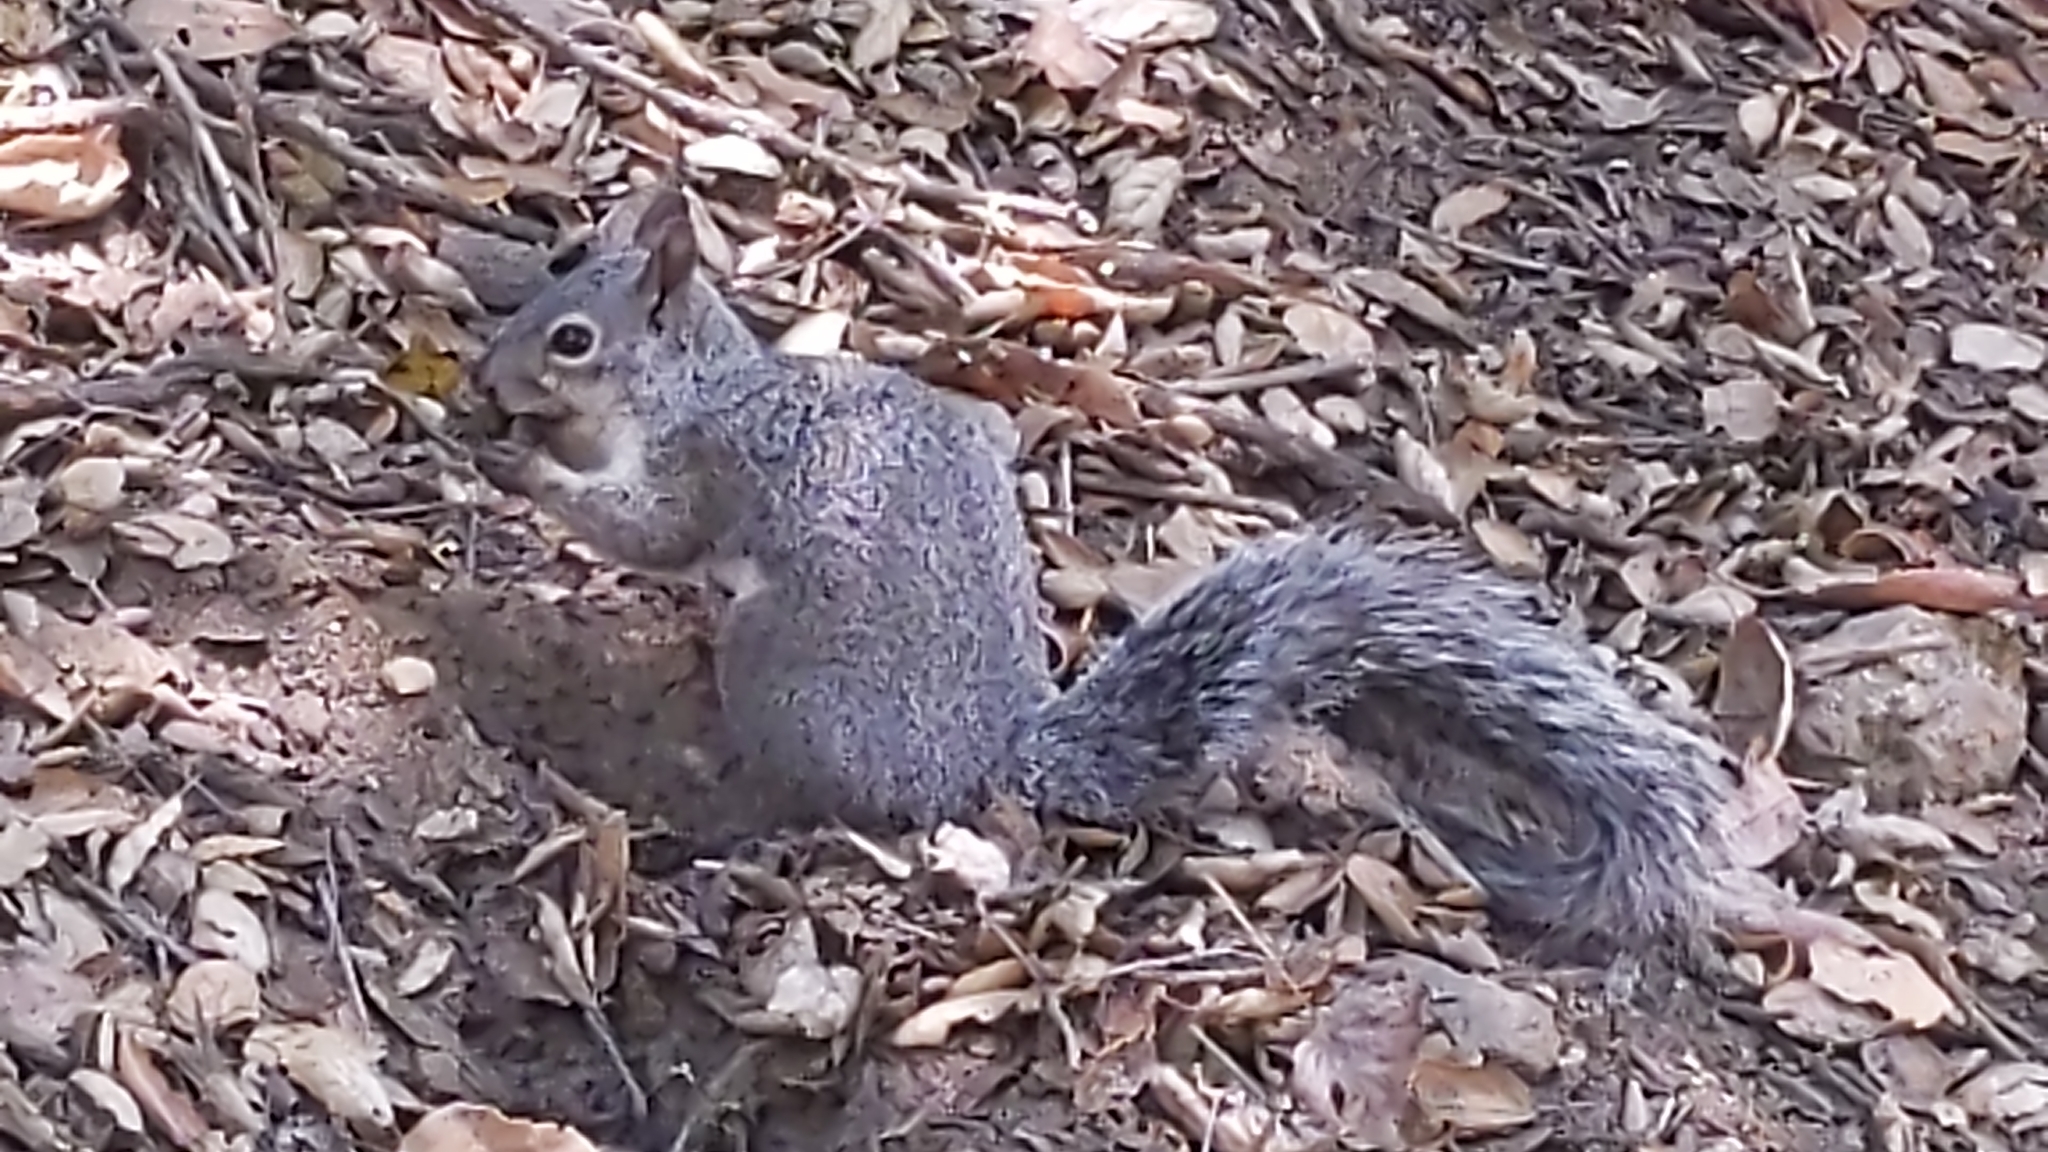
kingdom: Animalia
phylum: Chordata
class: Mammalia
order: Rodentia
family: Sciuridae
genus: Sciurus
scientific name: Sciurus griseus
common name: Western gray squirrel
